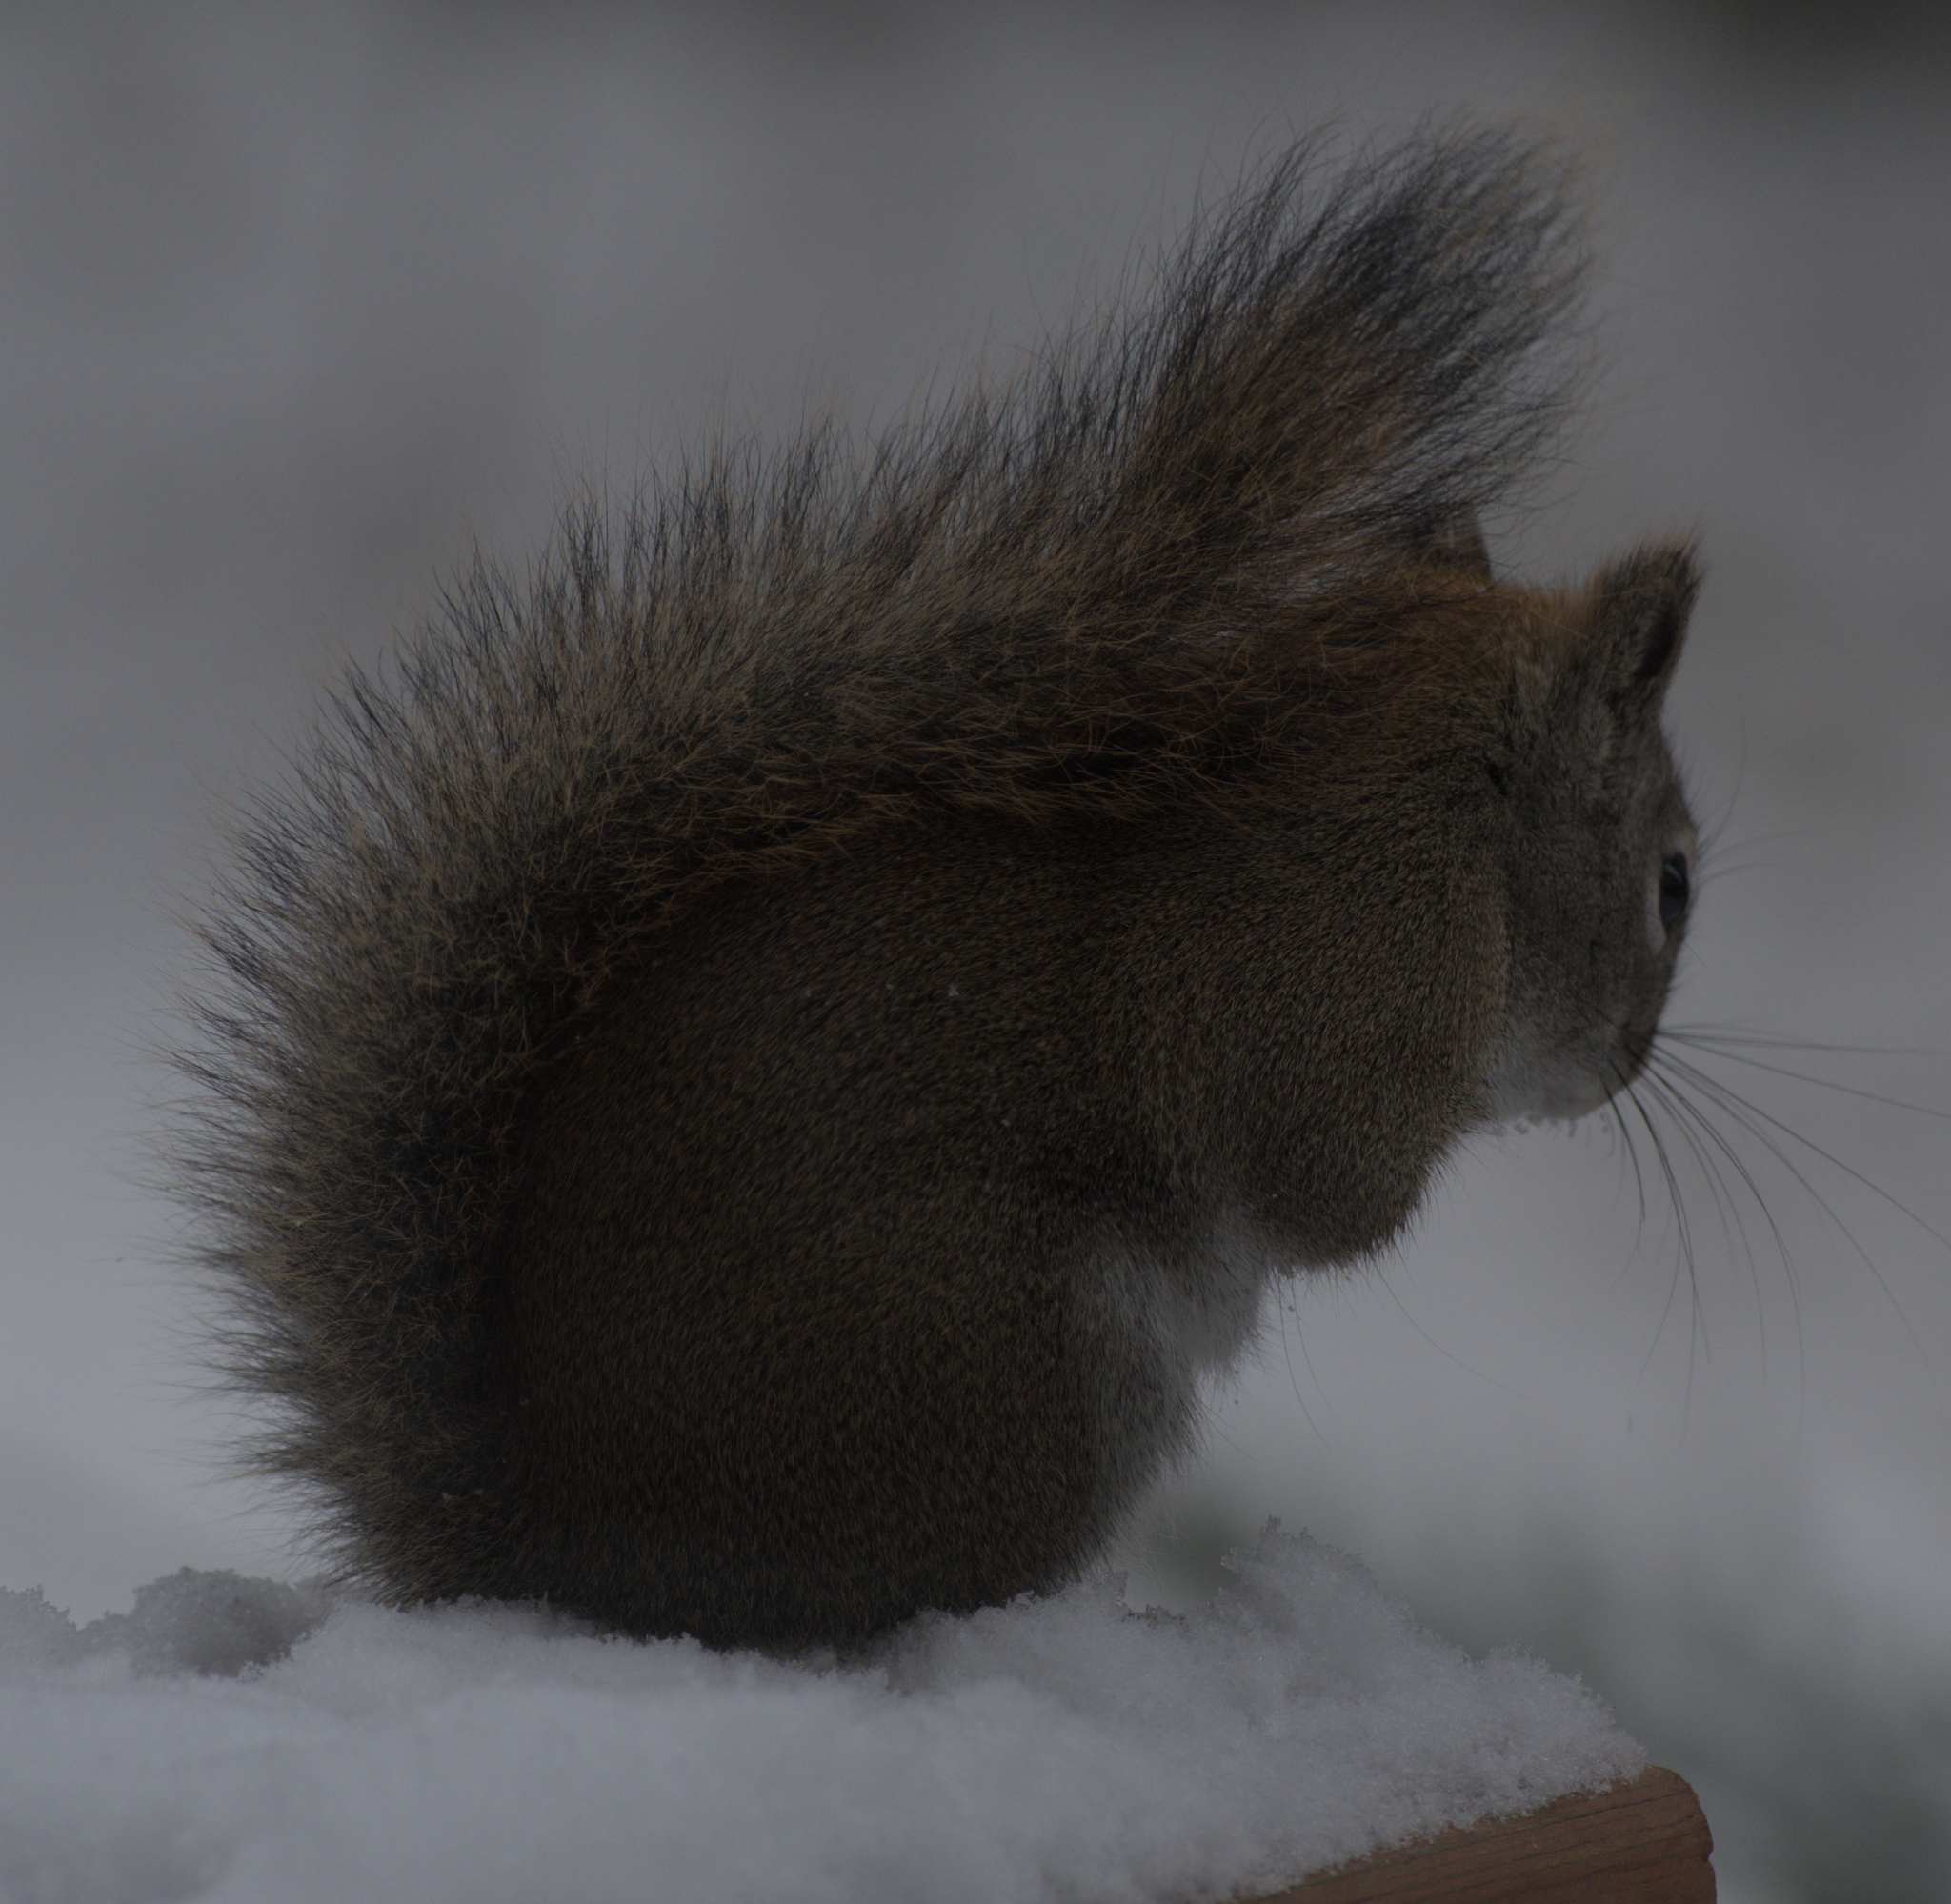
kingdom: Animalia
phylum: Chordata
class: Mammalia
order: Rodentia
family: Sciuridae
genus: Tamiasciurus
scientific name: Tamiasciurus hudsonicus
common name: Red squirrel
